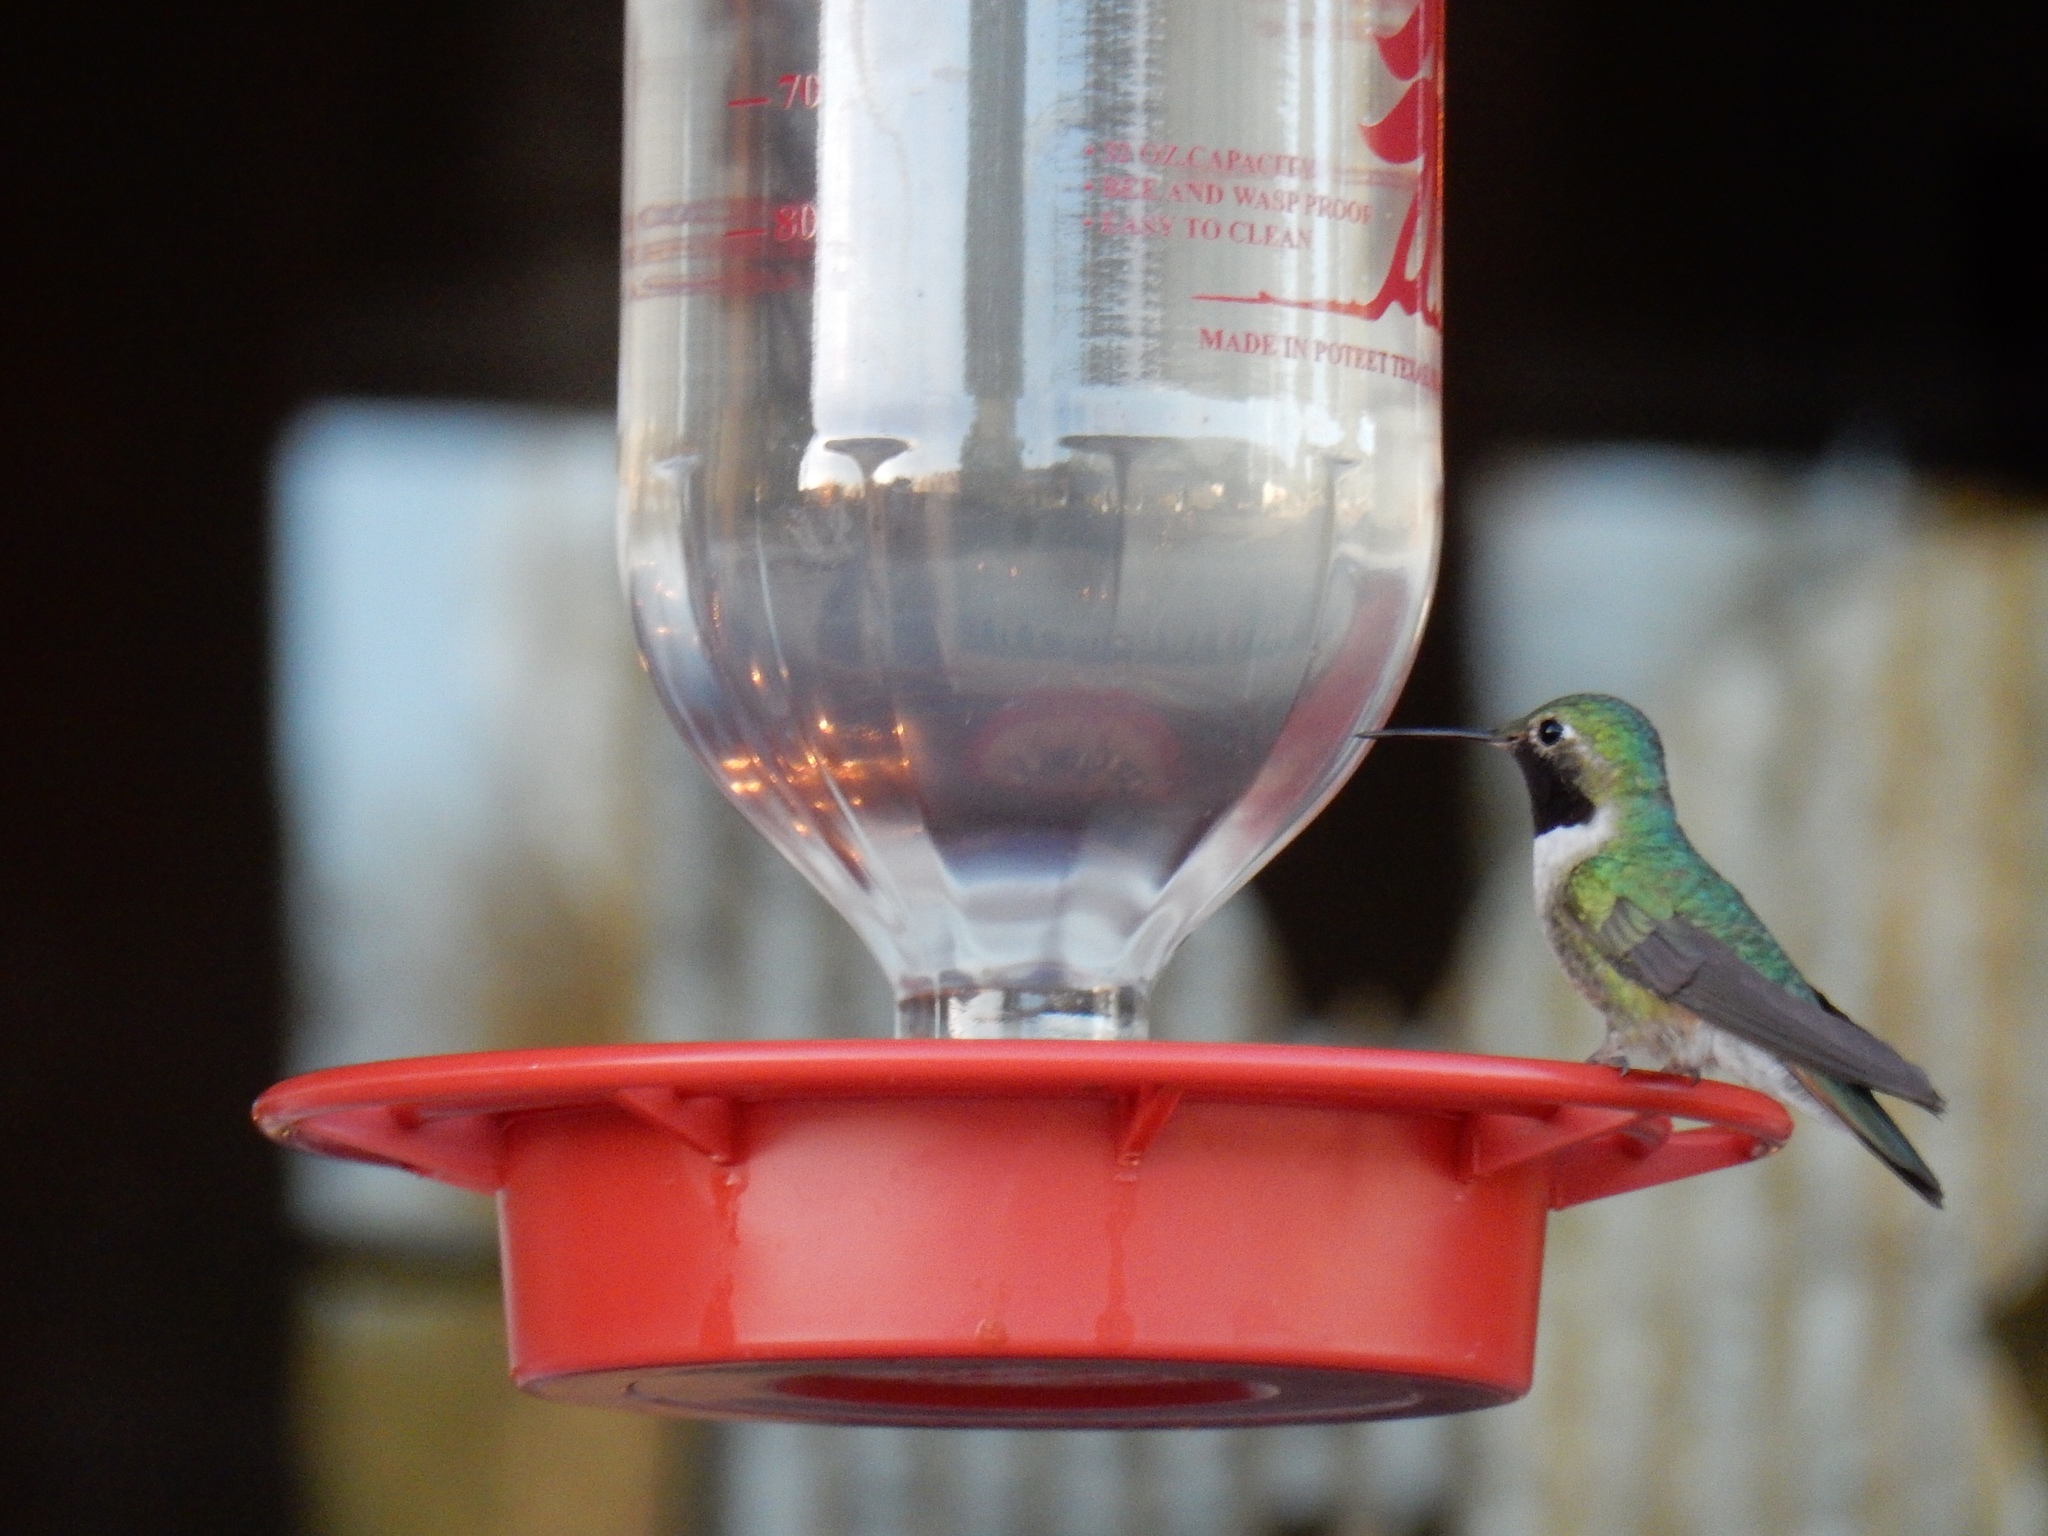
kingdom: Animalia
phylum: Chordata
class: Aves
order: Apodiformes
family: Trochilidae
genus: Selasphorus
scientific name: Selasphorus platycercus
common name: Broad-tailed hummingbird
